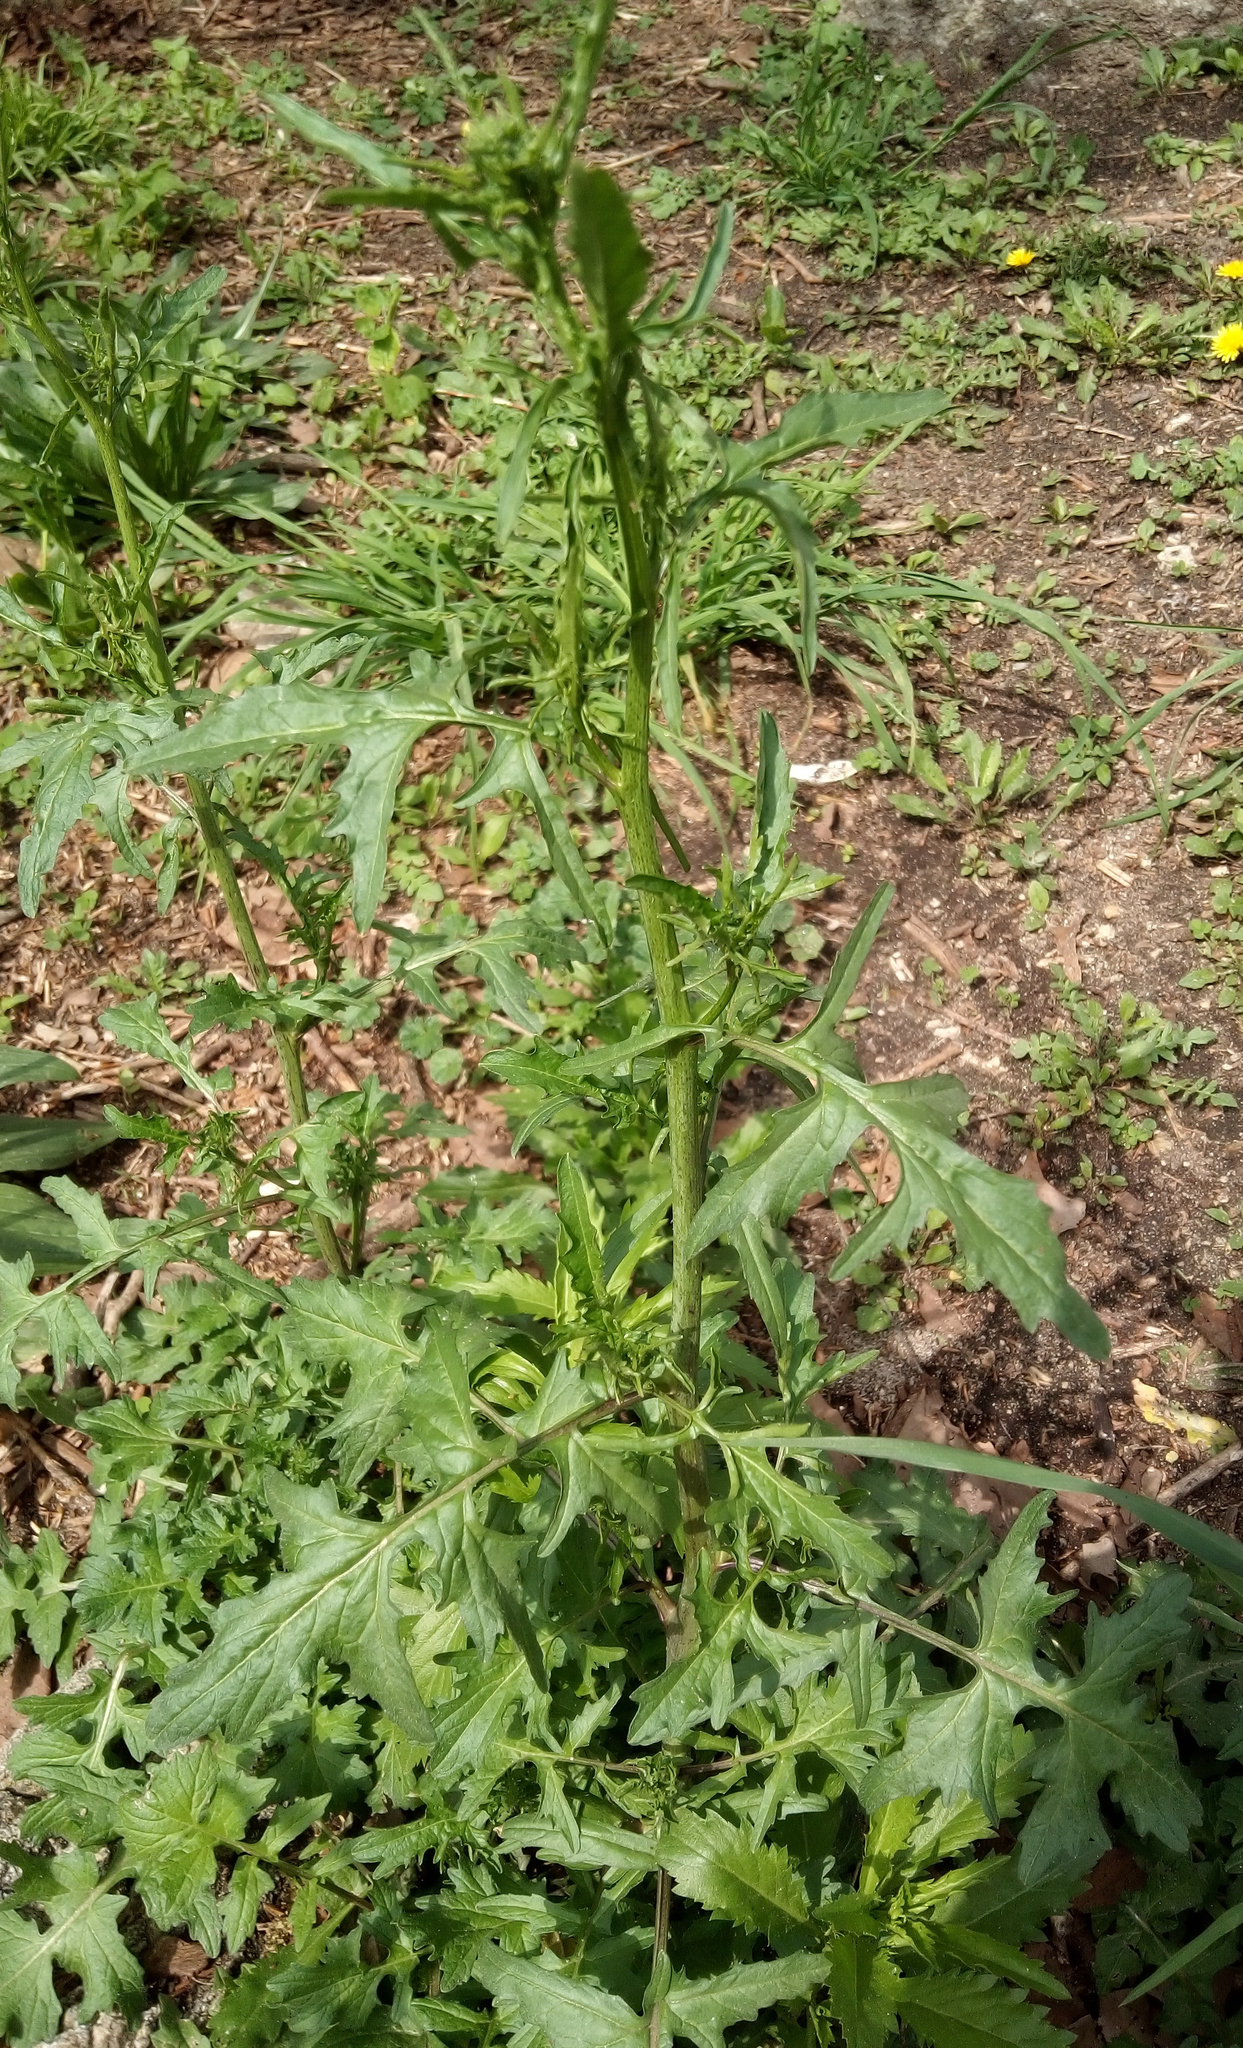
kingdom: Plantae
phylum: Tracheophyta
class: Magnoliopsida
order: Brassicales
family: Brassicaceae
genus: Sisymbrium
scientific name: Sisymbrium officinale
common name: Hedge mustard
